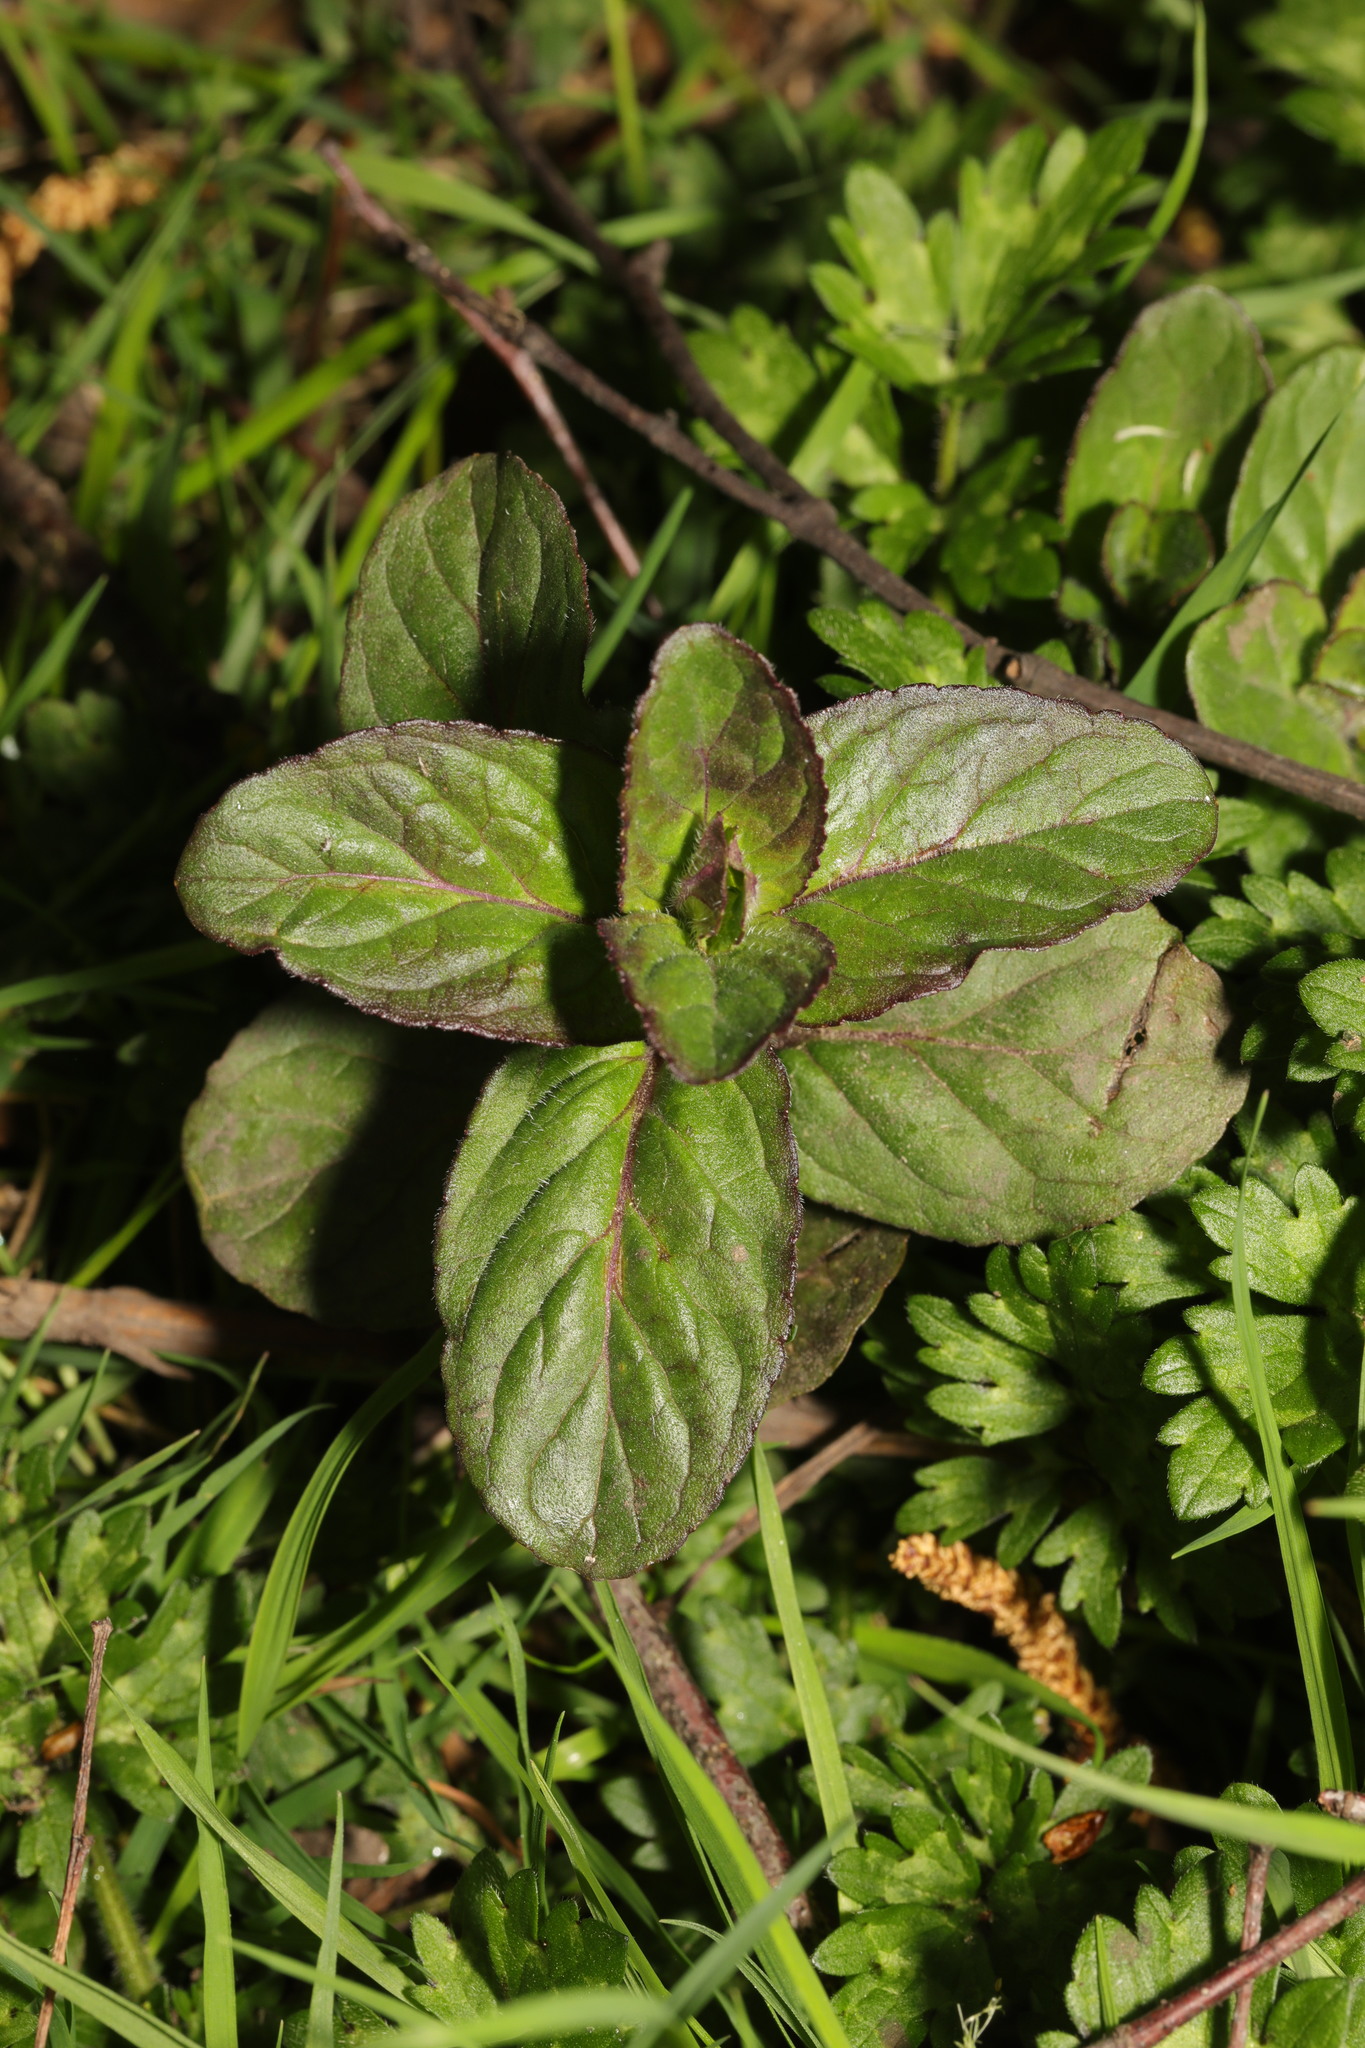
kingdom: Plantae
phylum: Tracheophyta
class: Magnoliopsida
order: Lamiales
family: Lamiaceae
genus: Mentha
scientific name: Mentha aquatica
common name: Water mint
